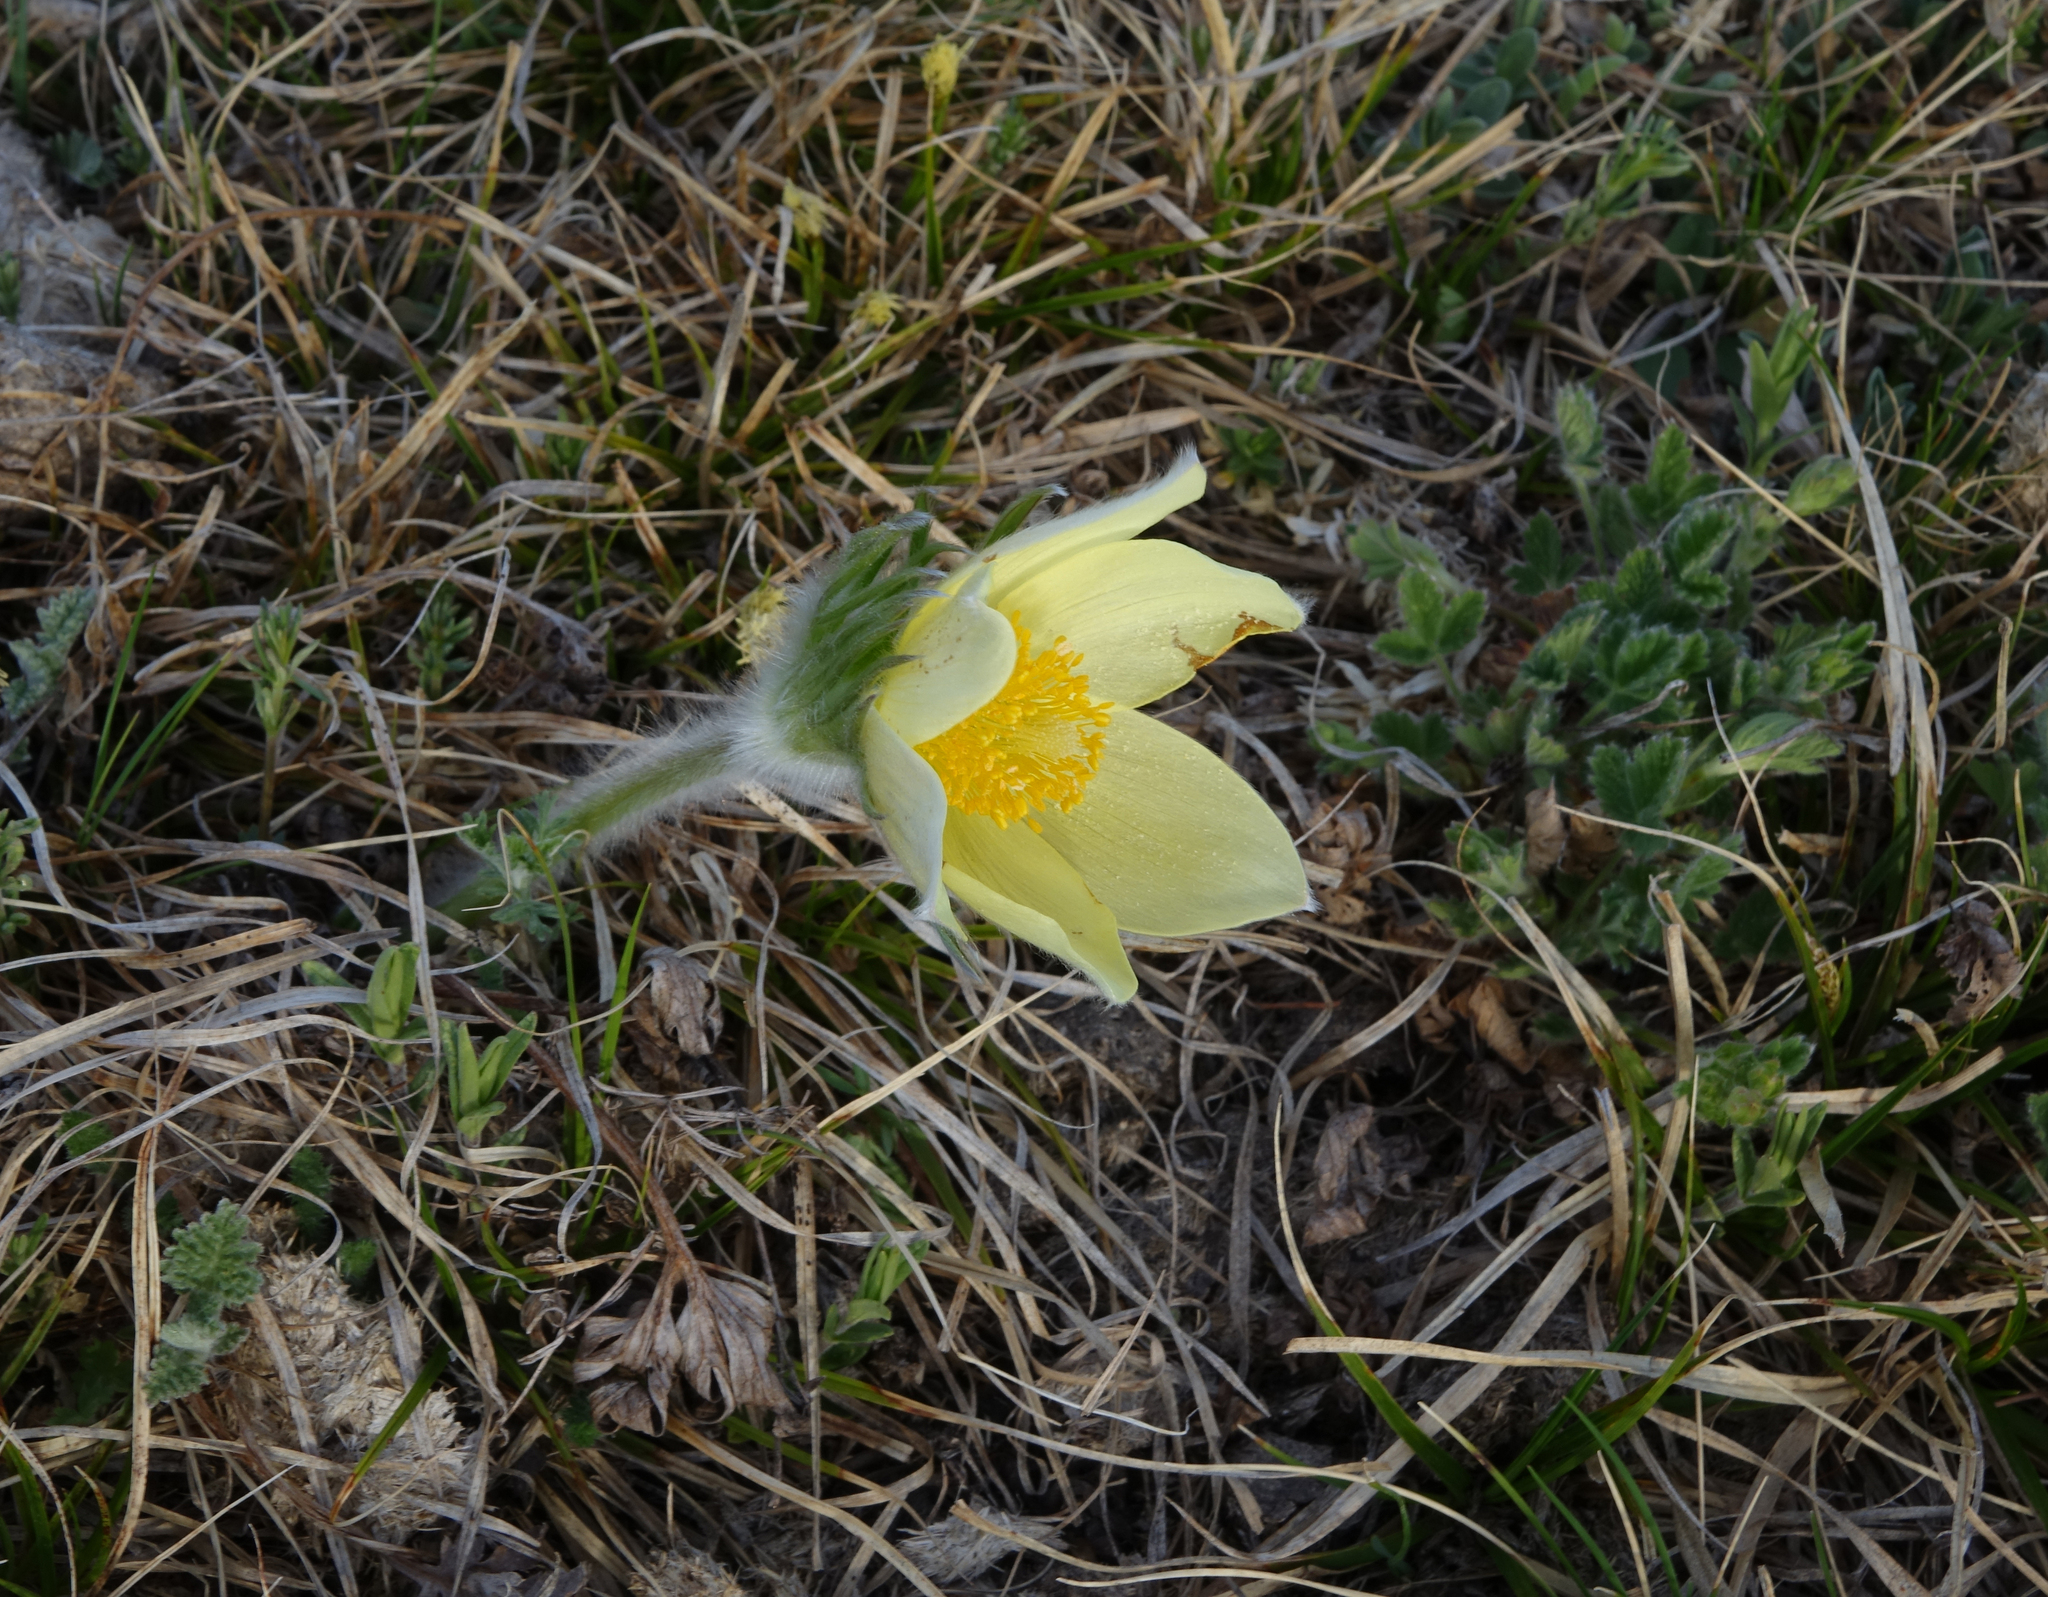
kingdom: Plantae
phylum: Tracheophyta
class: Magnoliopsida
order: Ranunculales
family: Ranunculaceae
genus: Pulsatilla
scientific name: Pulsatilla patens
